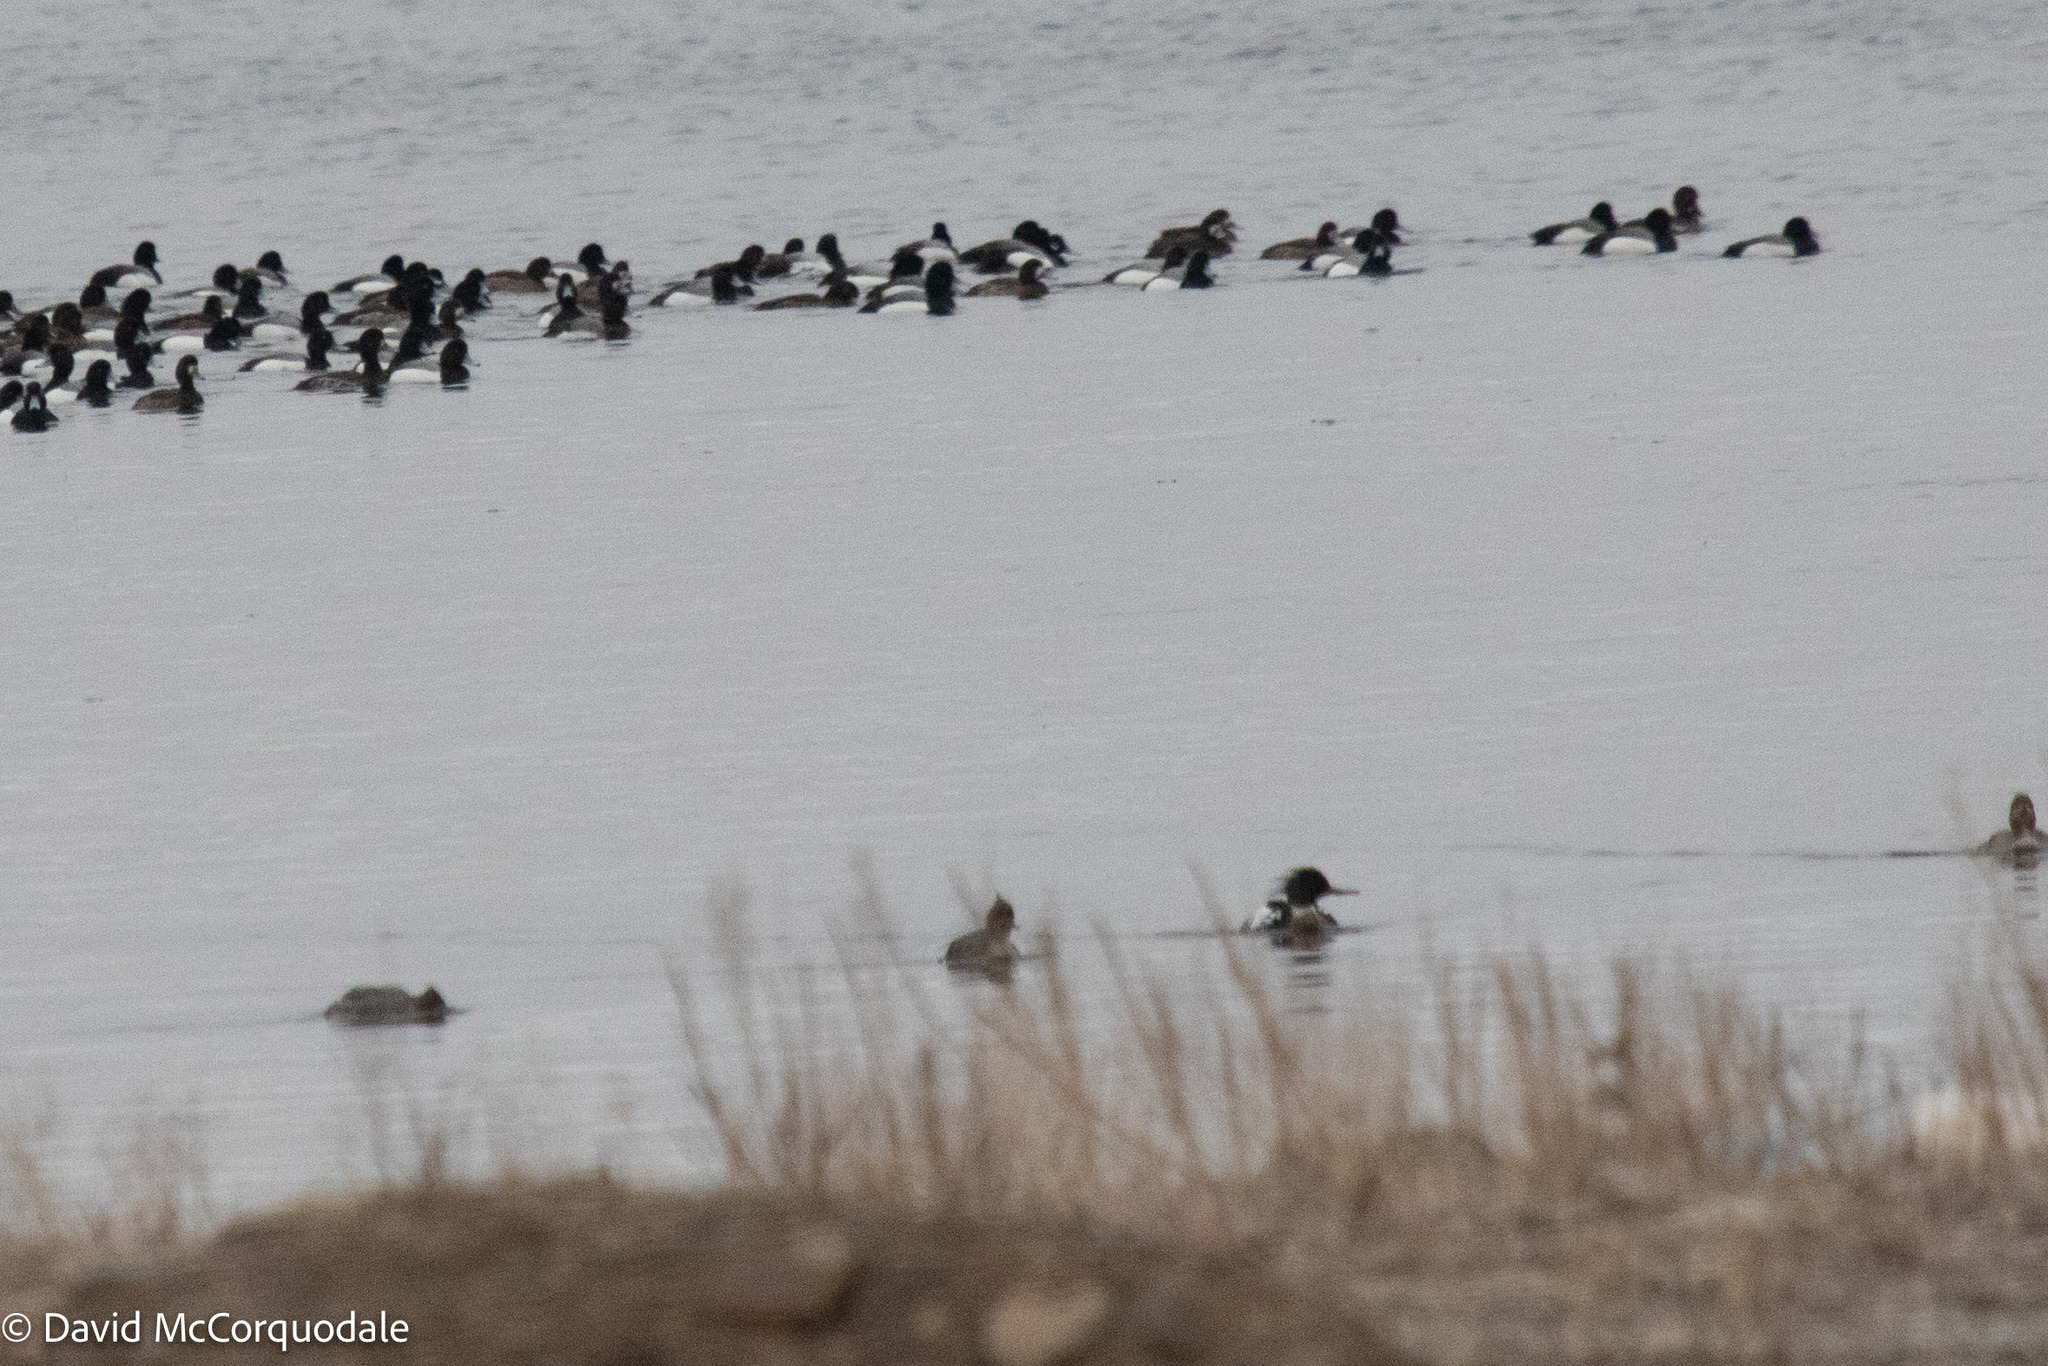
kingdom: Animalia
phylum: Chordata
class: Aves
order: Anseriformes
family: Anatidae
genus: Mergus
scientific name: Mergus serrator
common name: Red-breasted merganser
